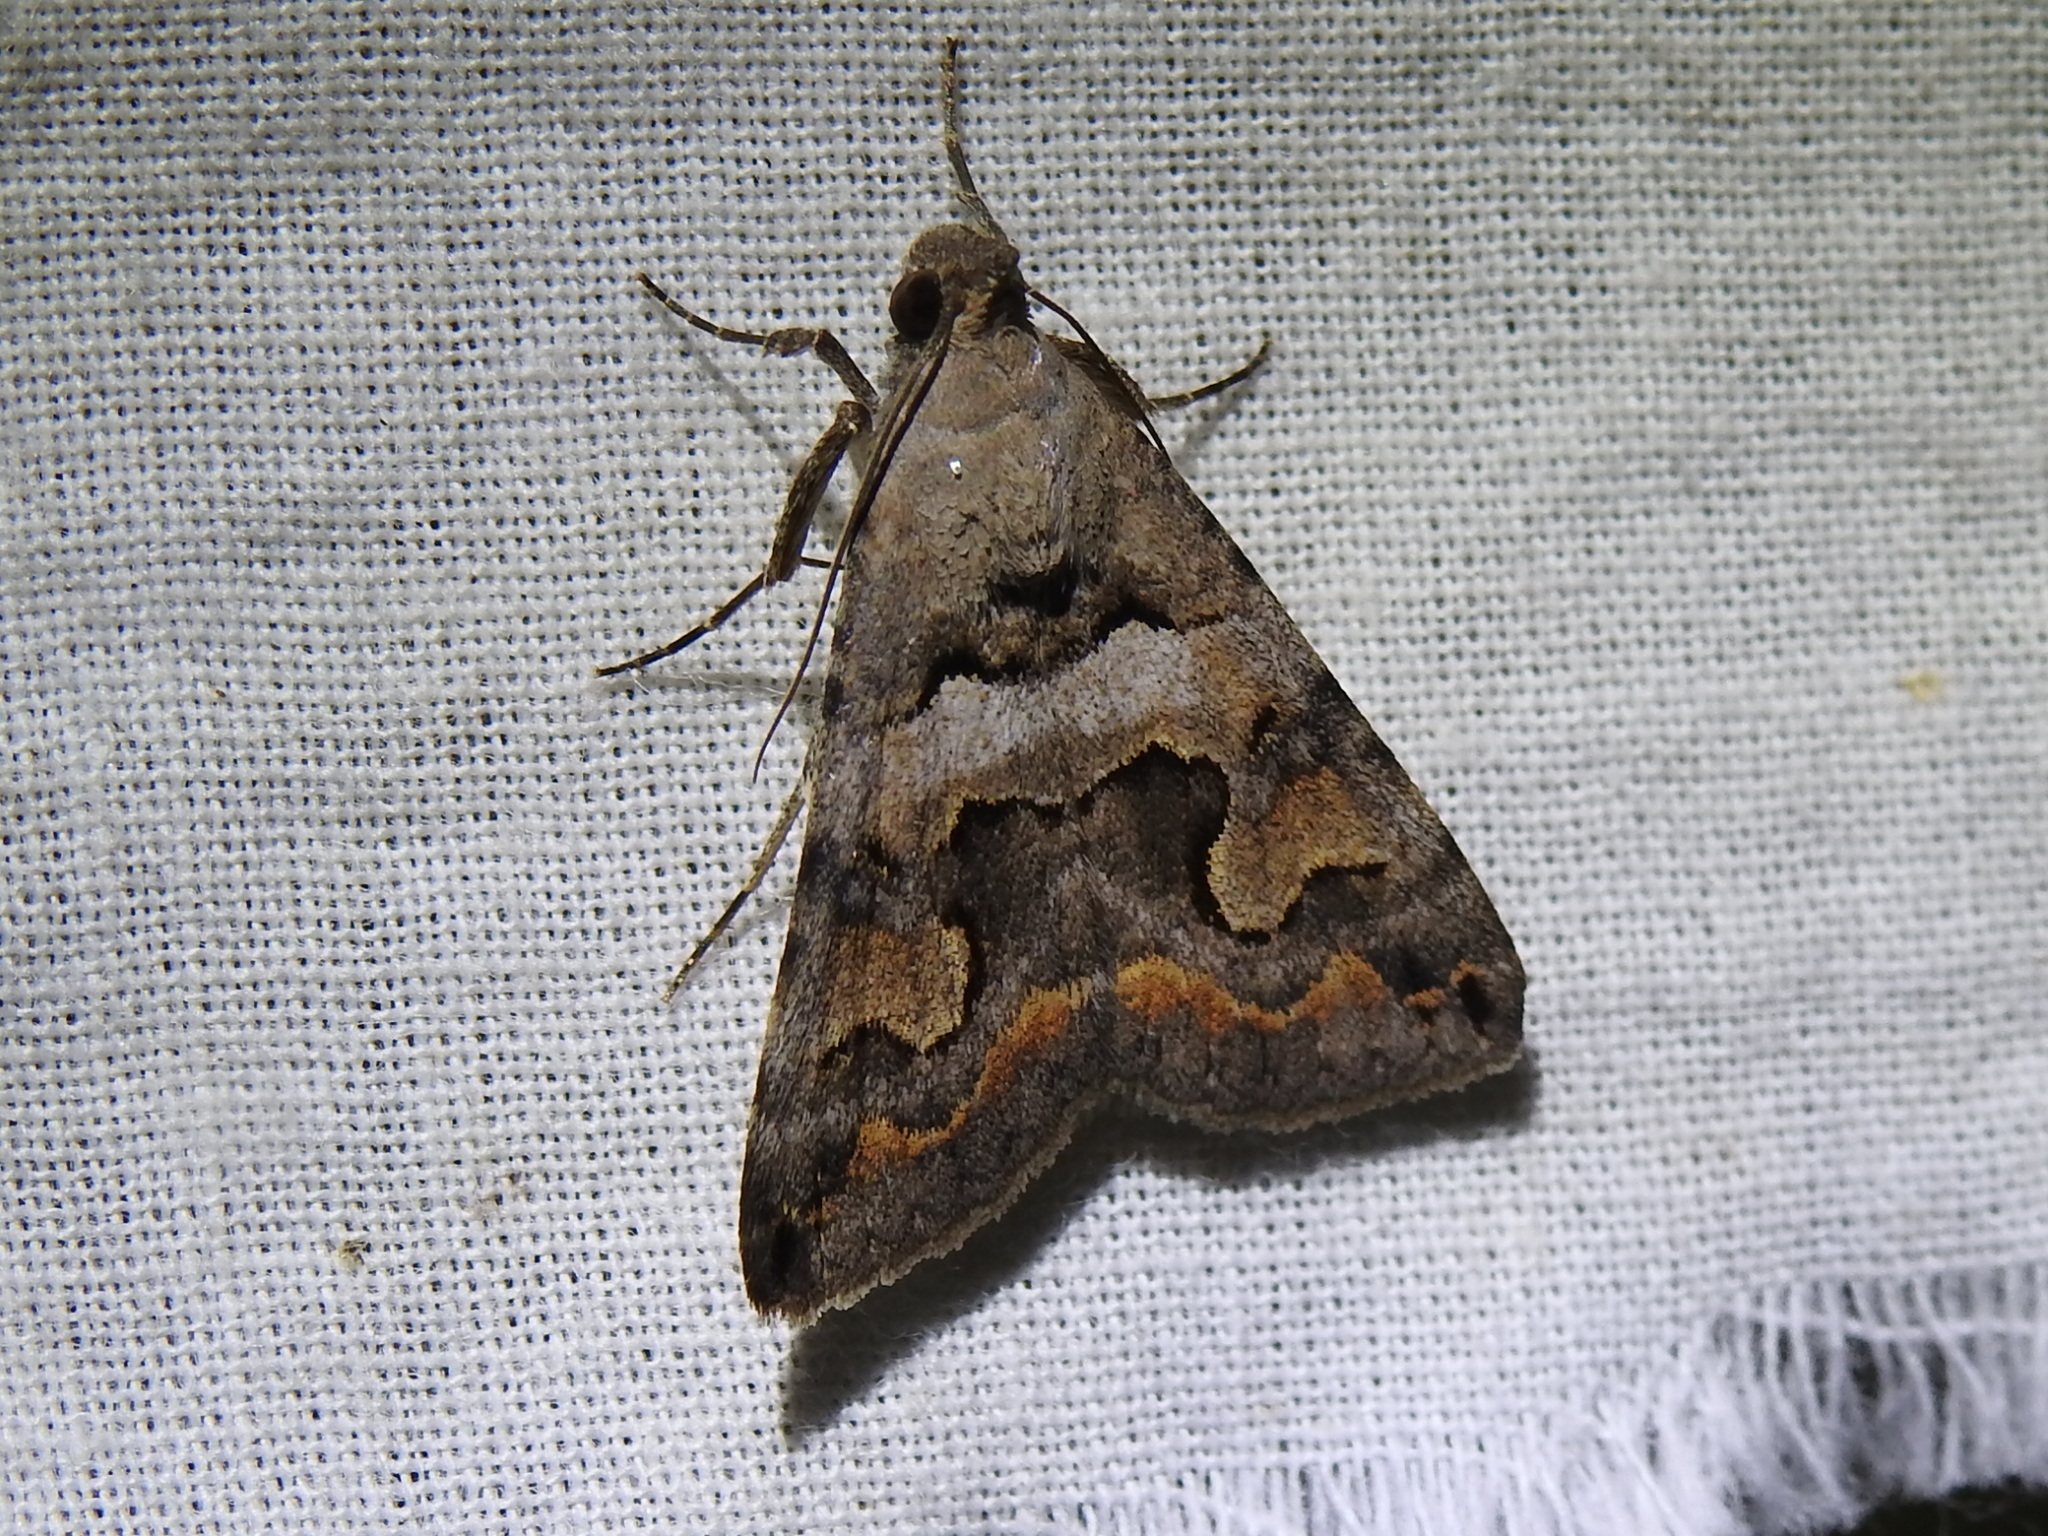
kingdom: Animalia
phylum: Arthropoda
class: Insecta
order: Lepidoptera
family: Erebidae
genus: Bulia
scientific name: Bulia deducta
